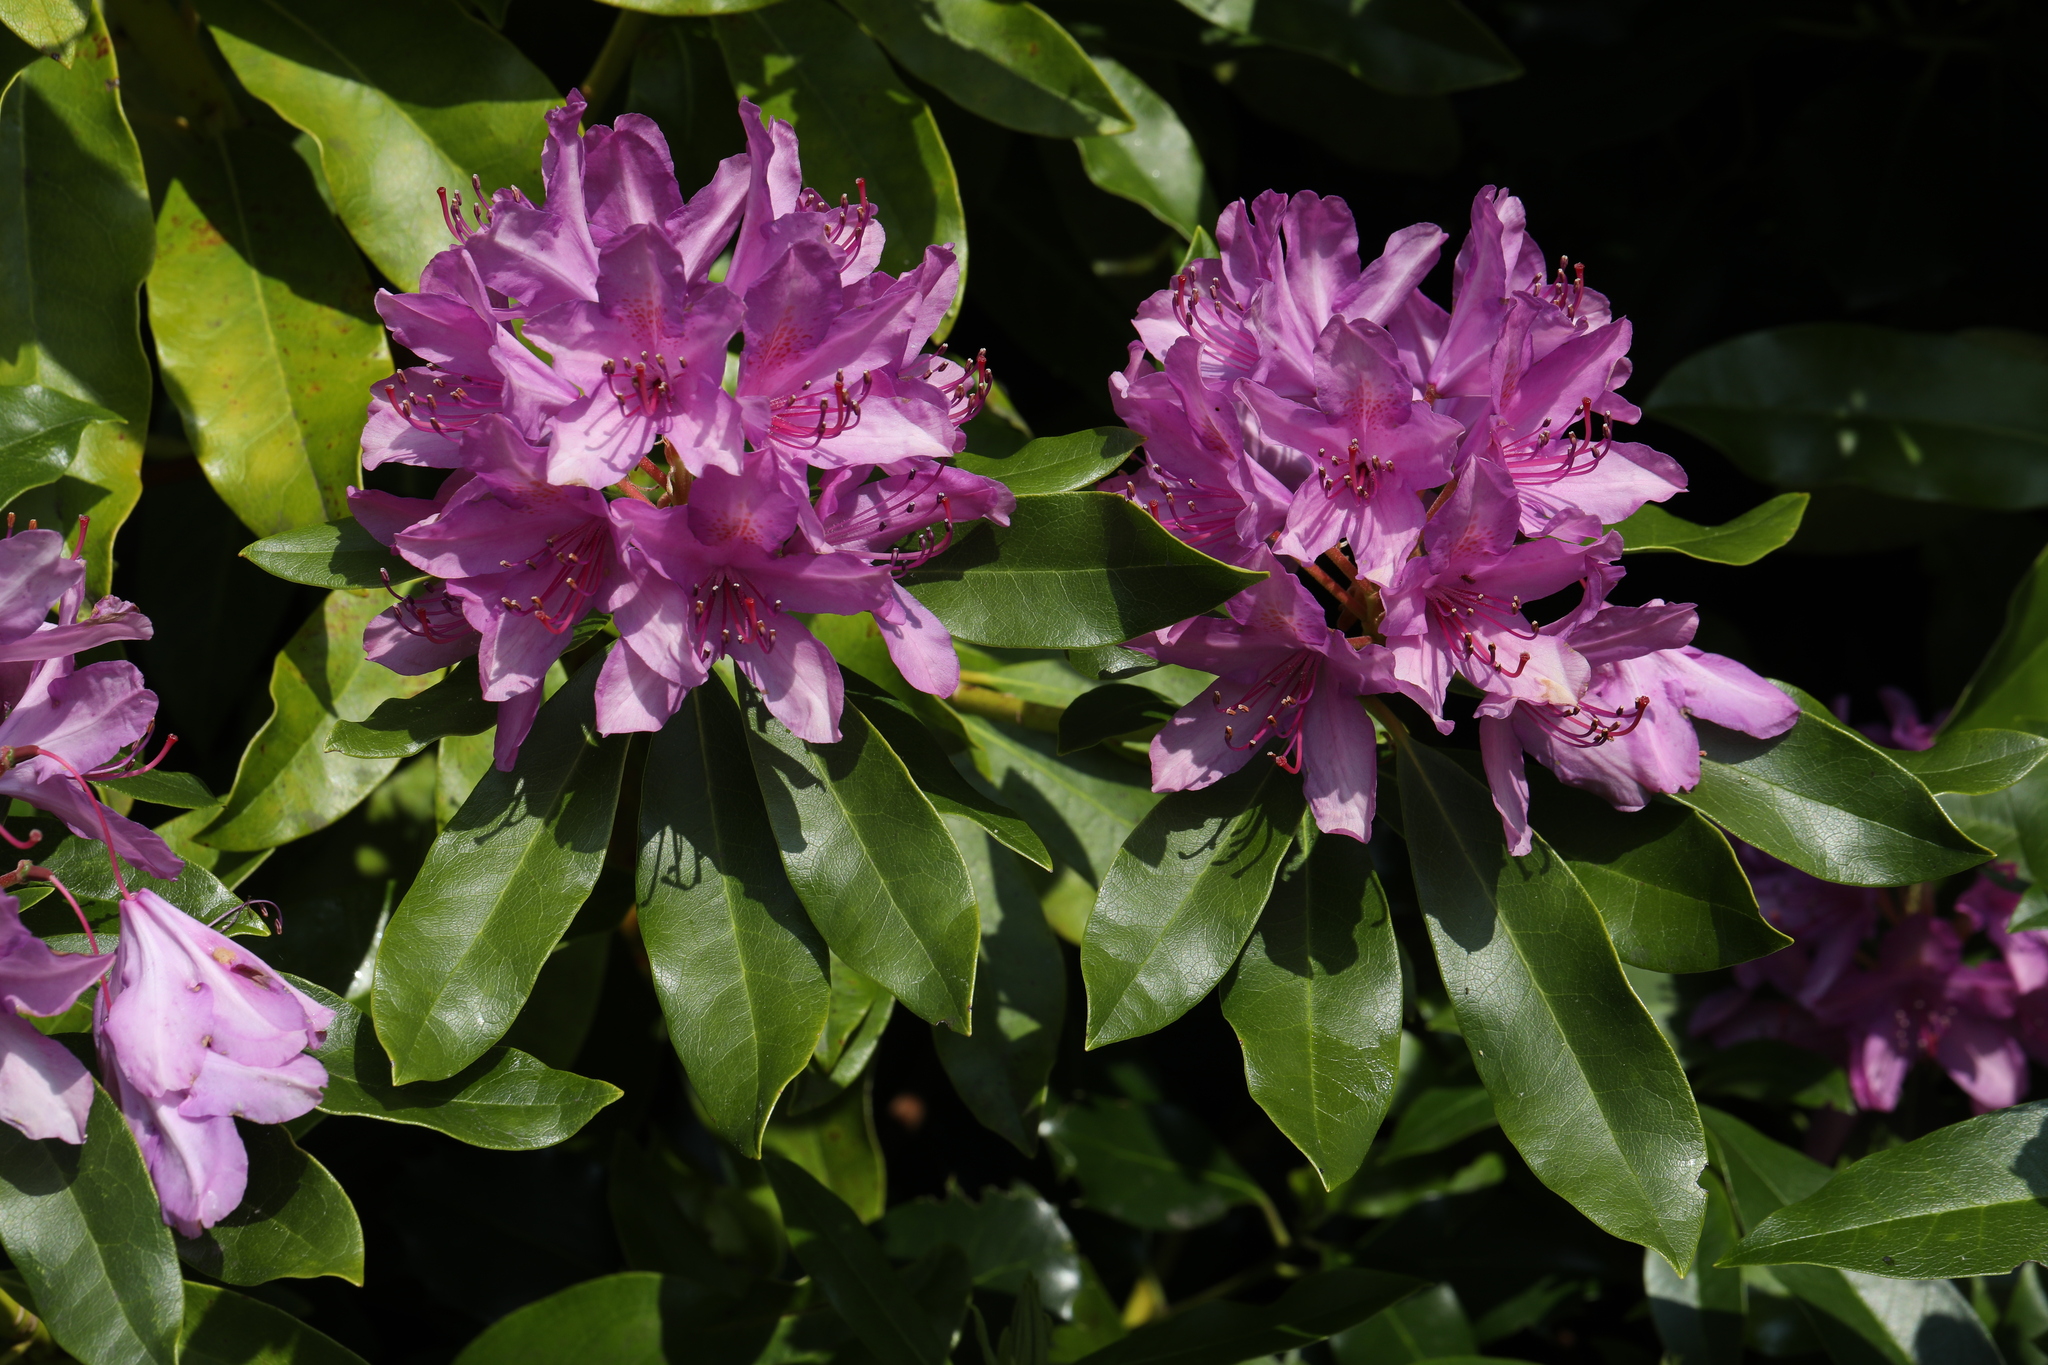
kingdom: Plantae
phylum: Tracheophyta
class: Magnoliopsida
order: Ericales
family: Ericaceae
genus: Rhododendron
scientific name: Rhododendron ponticum
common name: Rhododendron
